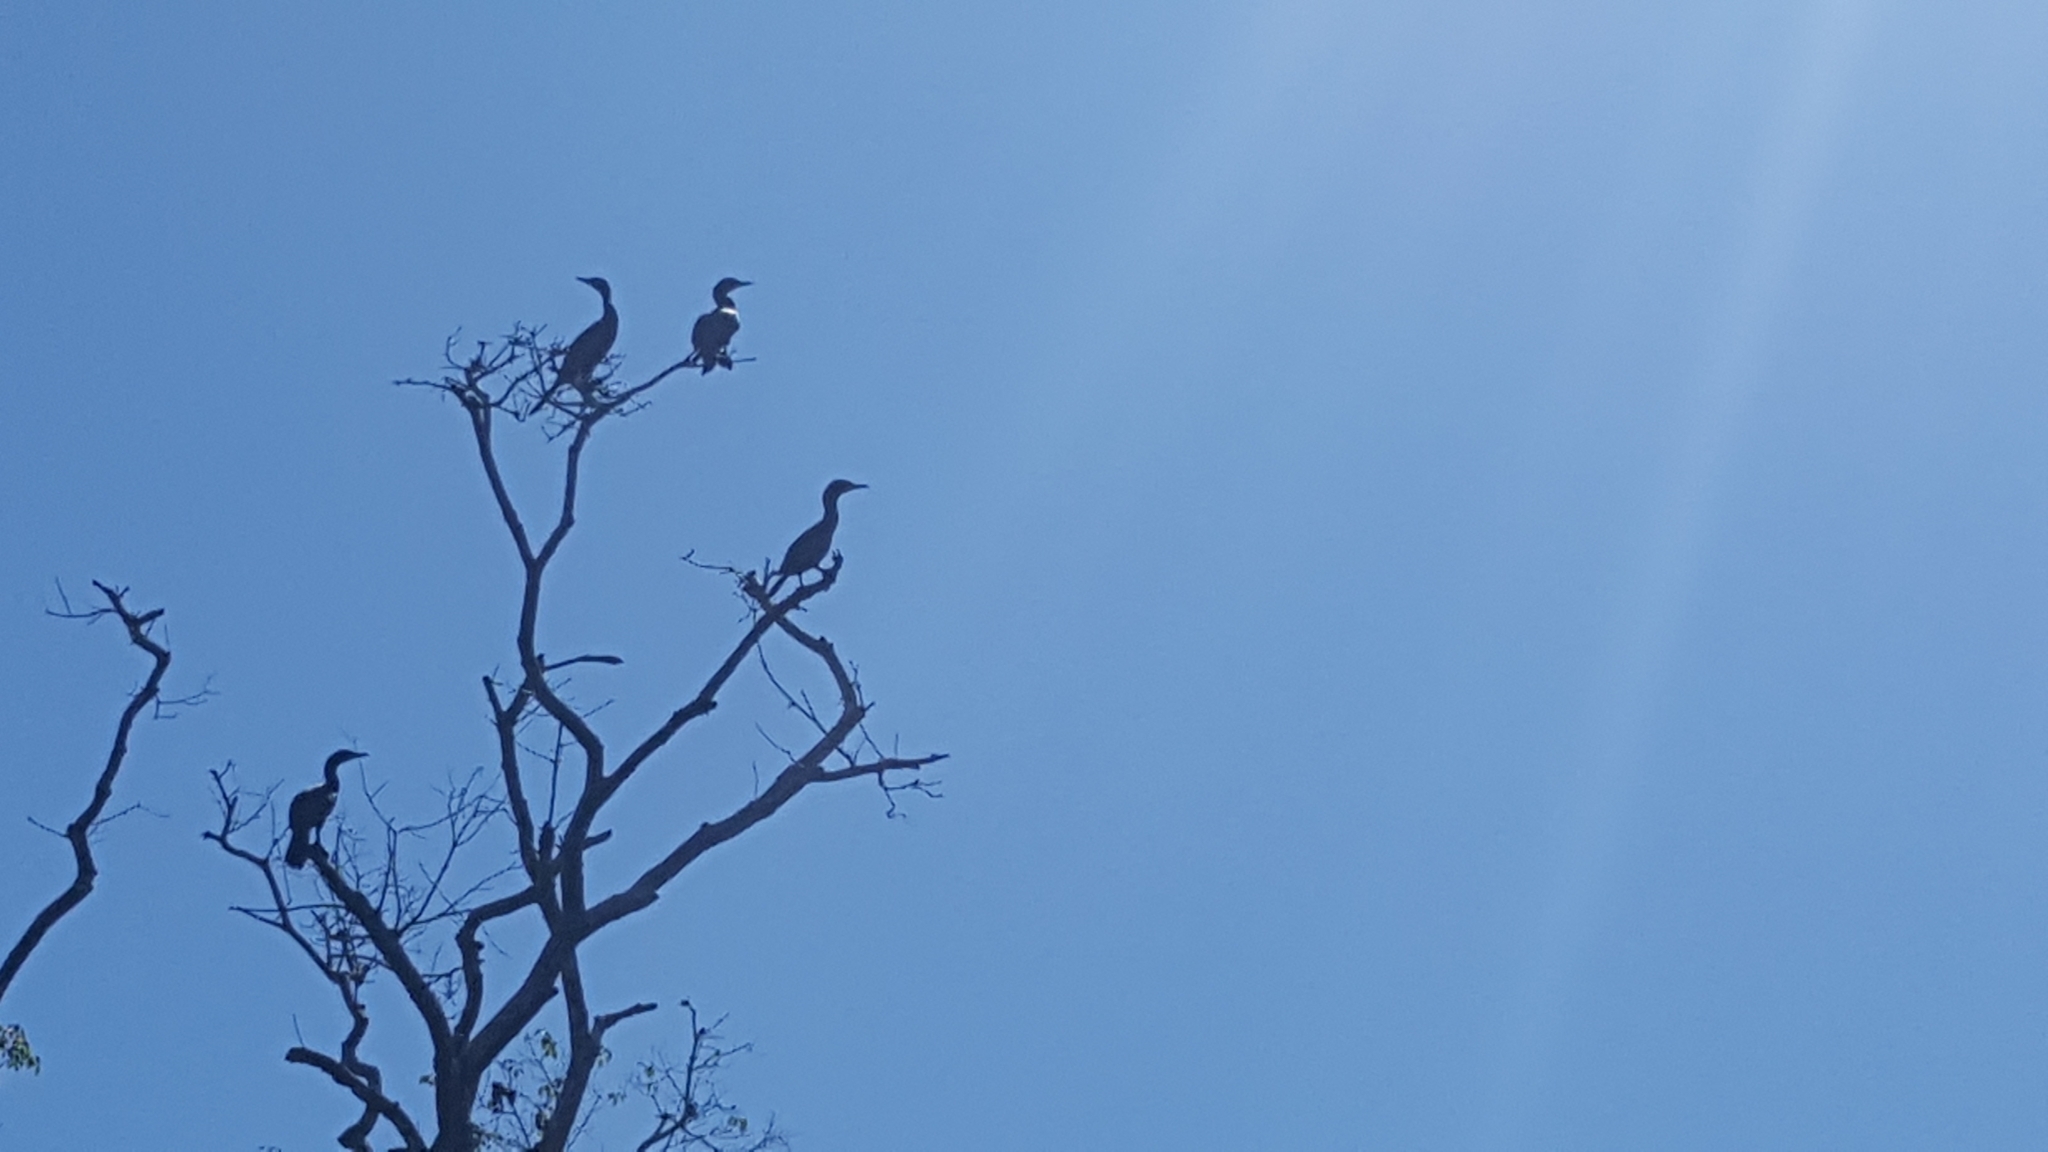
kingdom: Animalia
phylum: Chordata
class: Aves
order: Suliformes
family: Phalacrocoracidae
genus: Phalacrocorax
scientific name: Phalacrocorax brasilianus
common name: Neotropic cormorant
